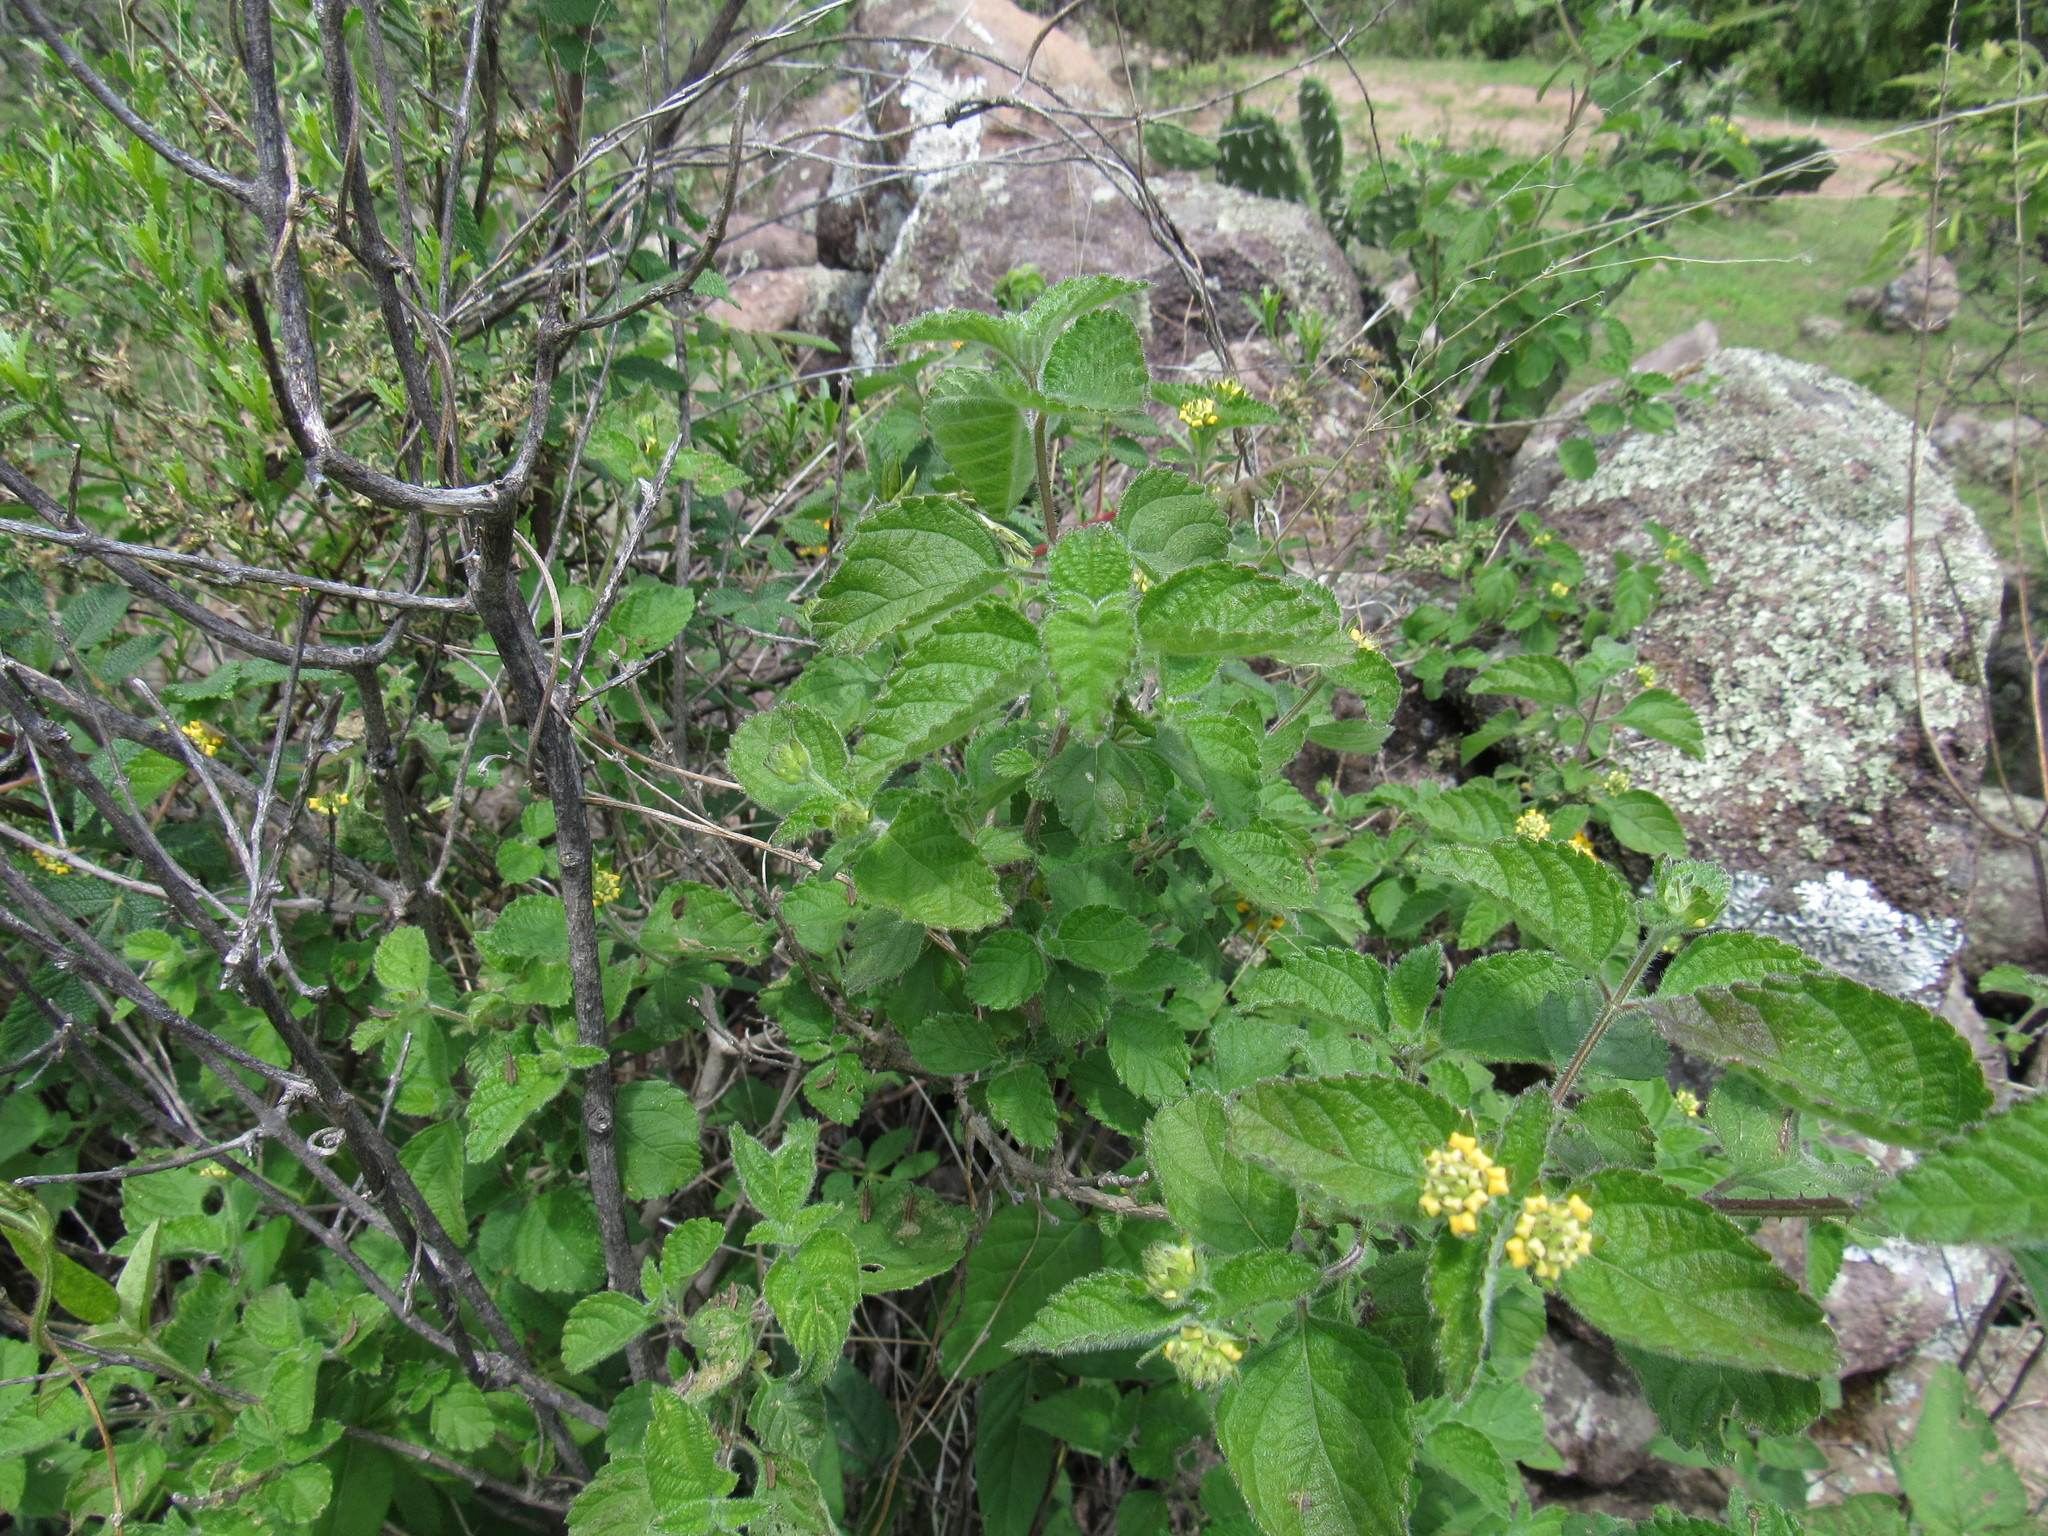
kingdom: Plantae
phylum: Tracheophyta
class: Magnoliopsida
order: Lamiales
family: Verbenaceae
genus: Lantana
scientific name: Lantana camara
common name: Lantana
